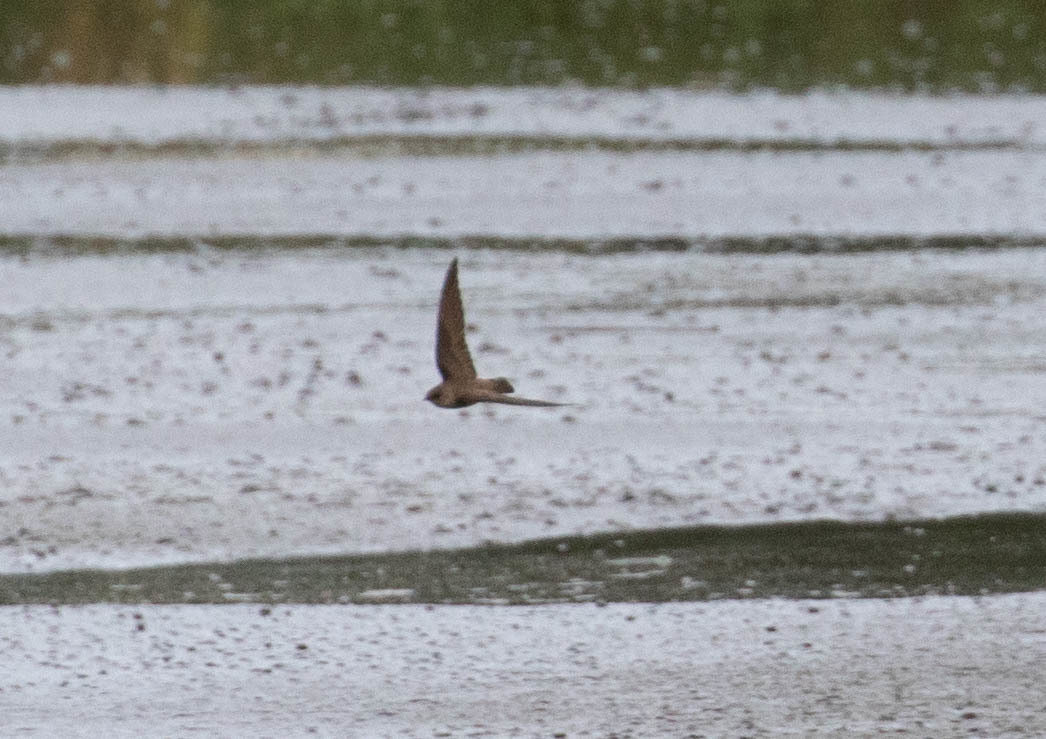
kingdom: Animalia
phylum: Chordata
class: Aves
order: Passeriformes
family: Hirundinidae
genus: Stelgidopteryx
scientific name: Stelgidopteryx serripennis
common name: Northern rough-winged swallow
